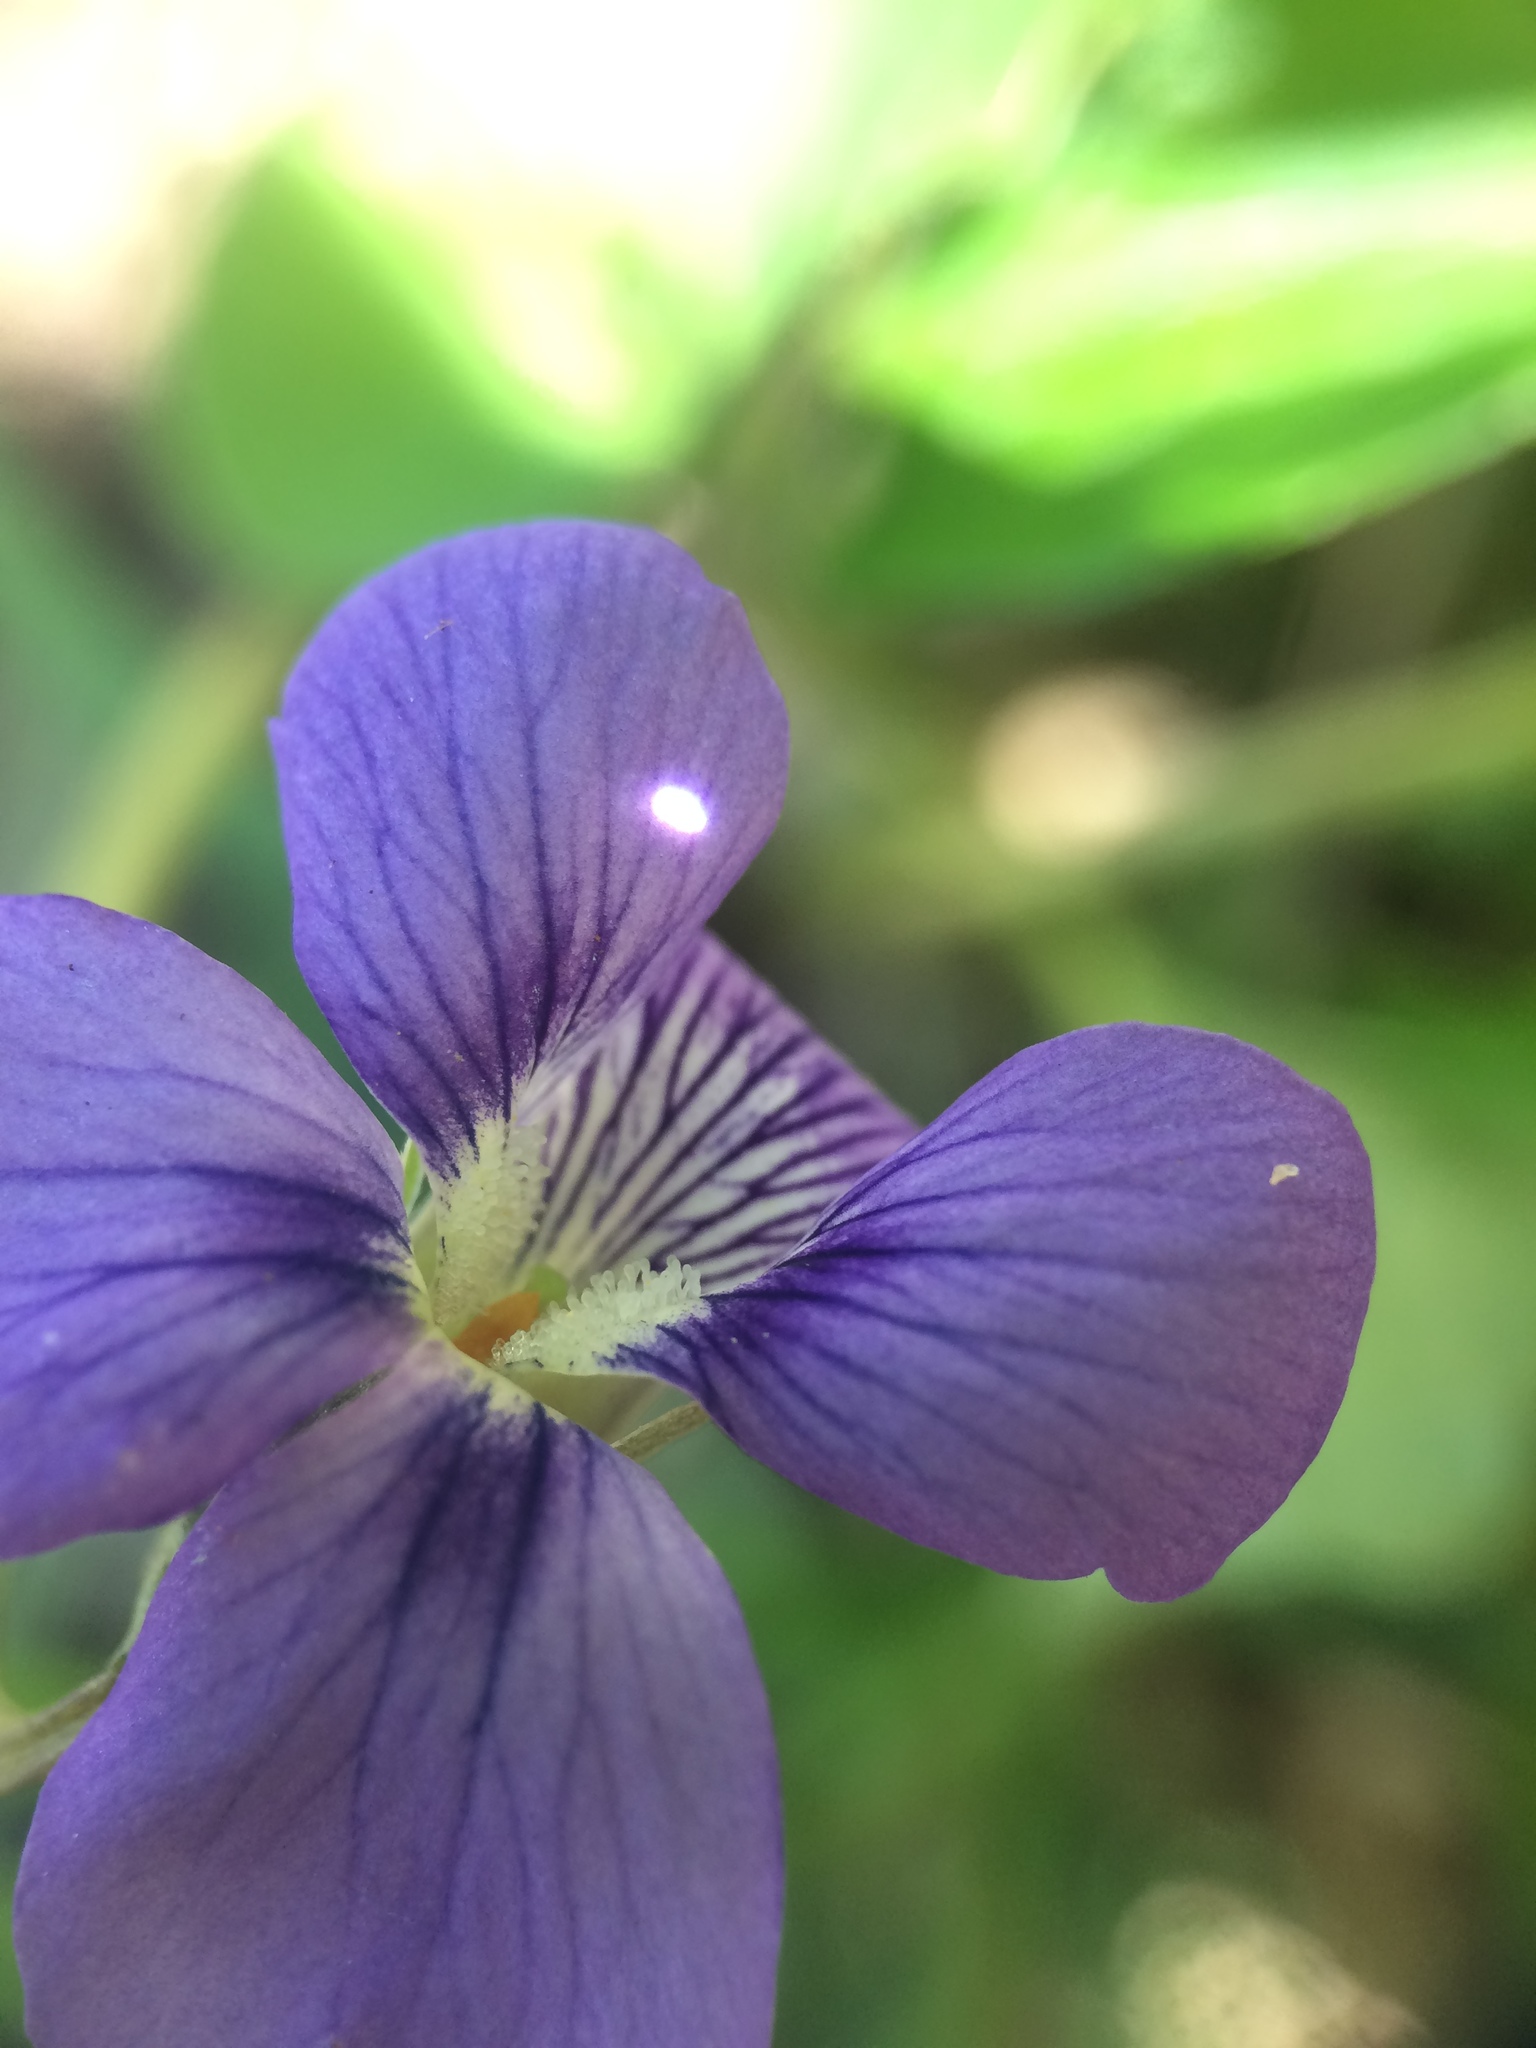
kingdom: Plantae
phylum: Tracheophyta
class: Magnoliopsida
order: Malpighiales
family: Violaceae
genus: Viola
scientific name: Viola cucullata
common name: Marsh blue violet
